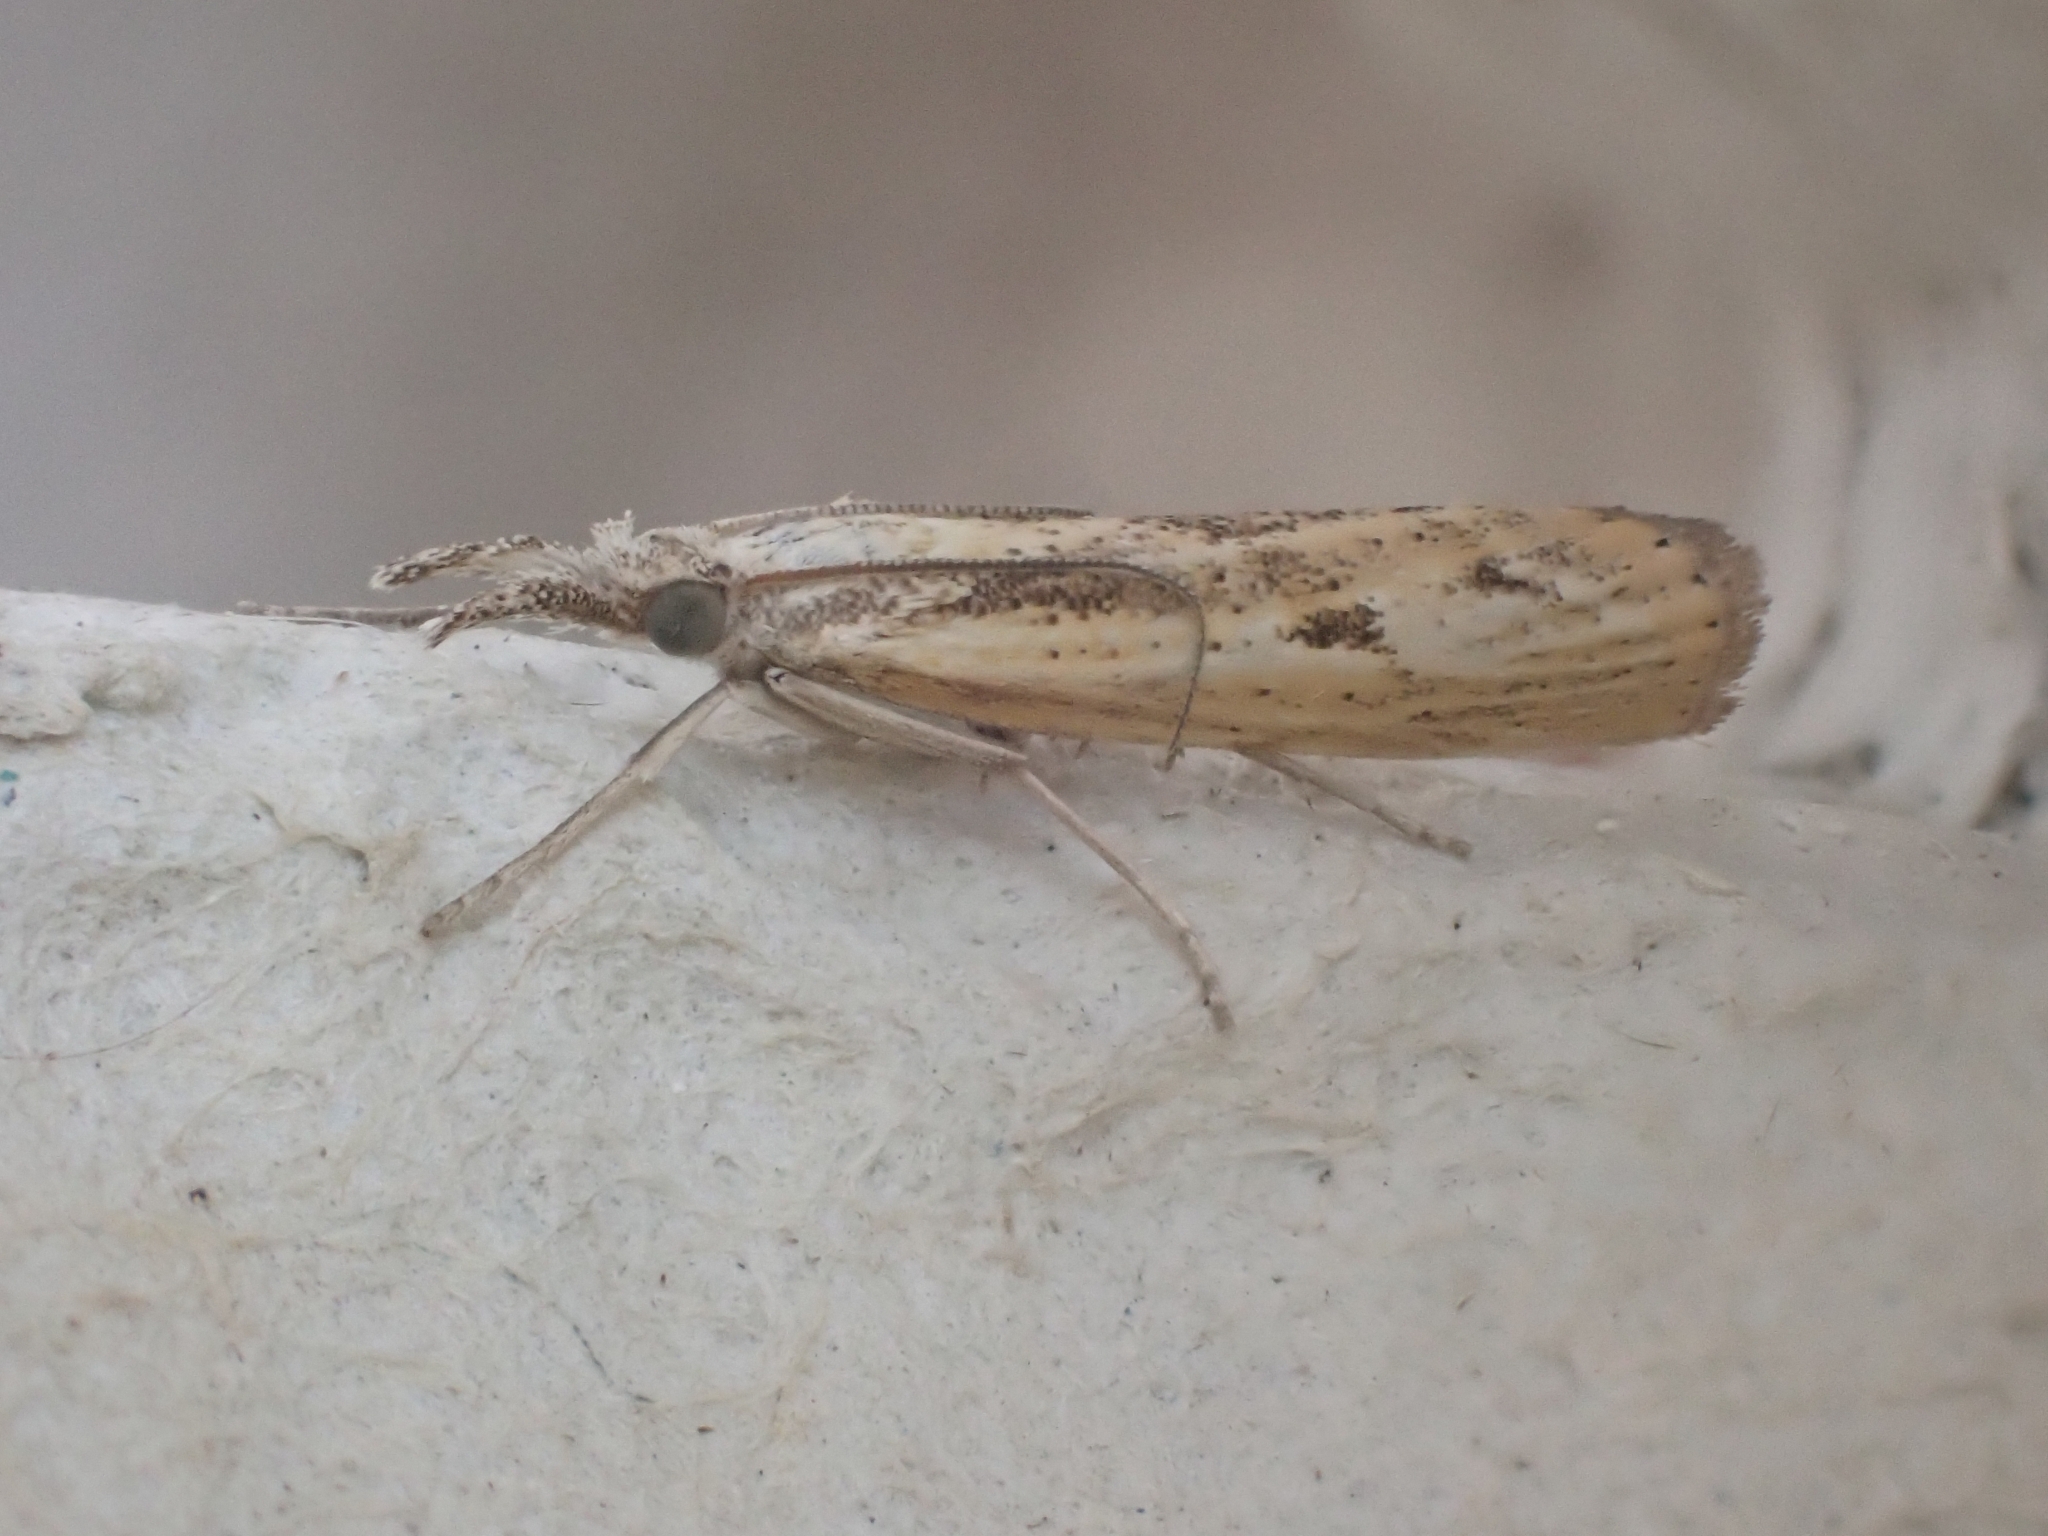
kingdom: Animalia
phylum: Arthropoda
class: Insecta
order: Lepidoptera
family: Crambidae
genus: Agriphila
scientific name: Agriphila inquinatella
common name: Barred grass-veneer
